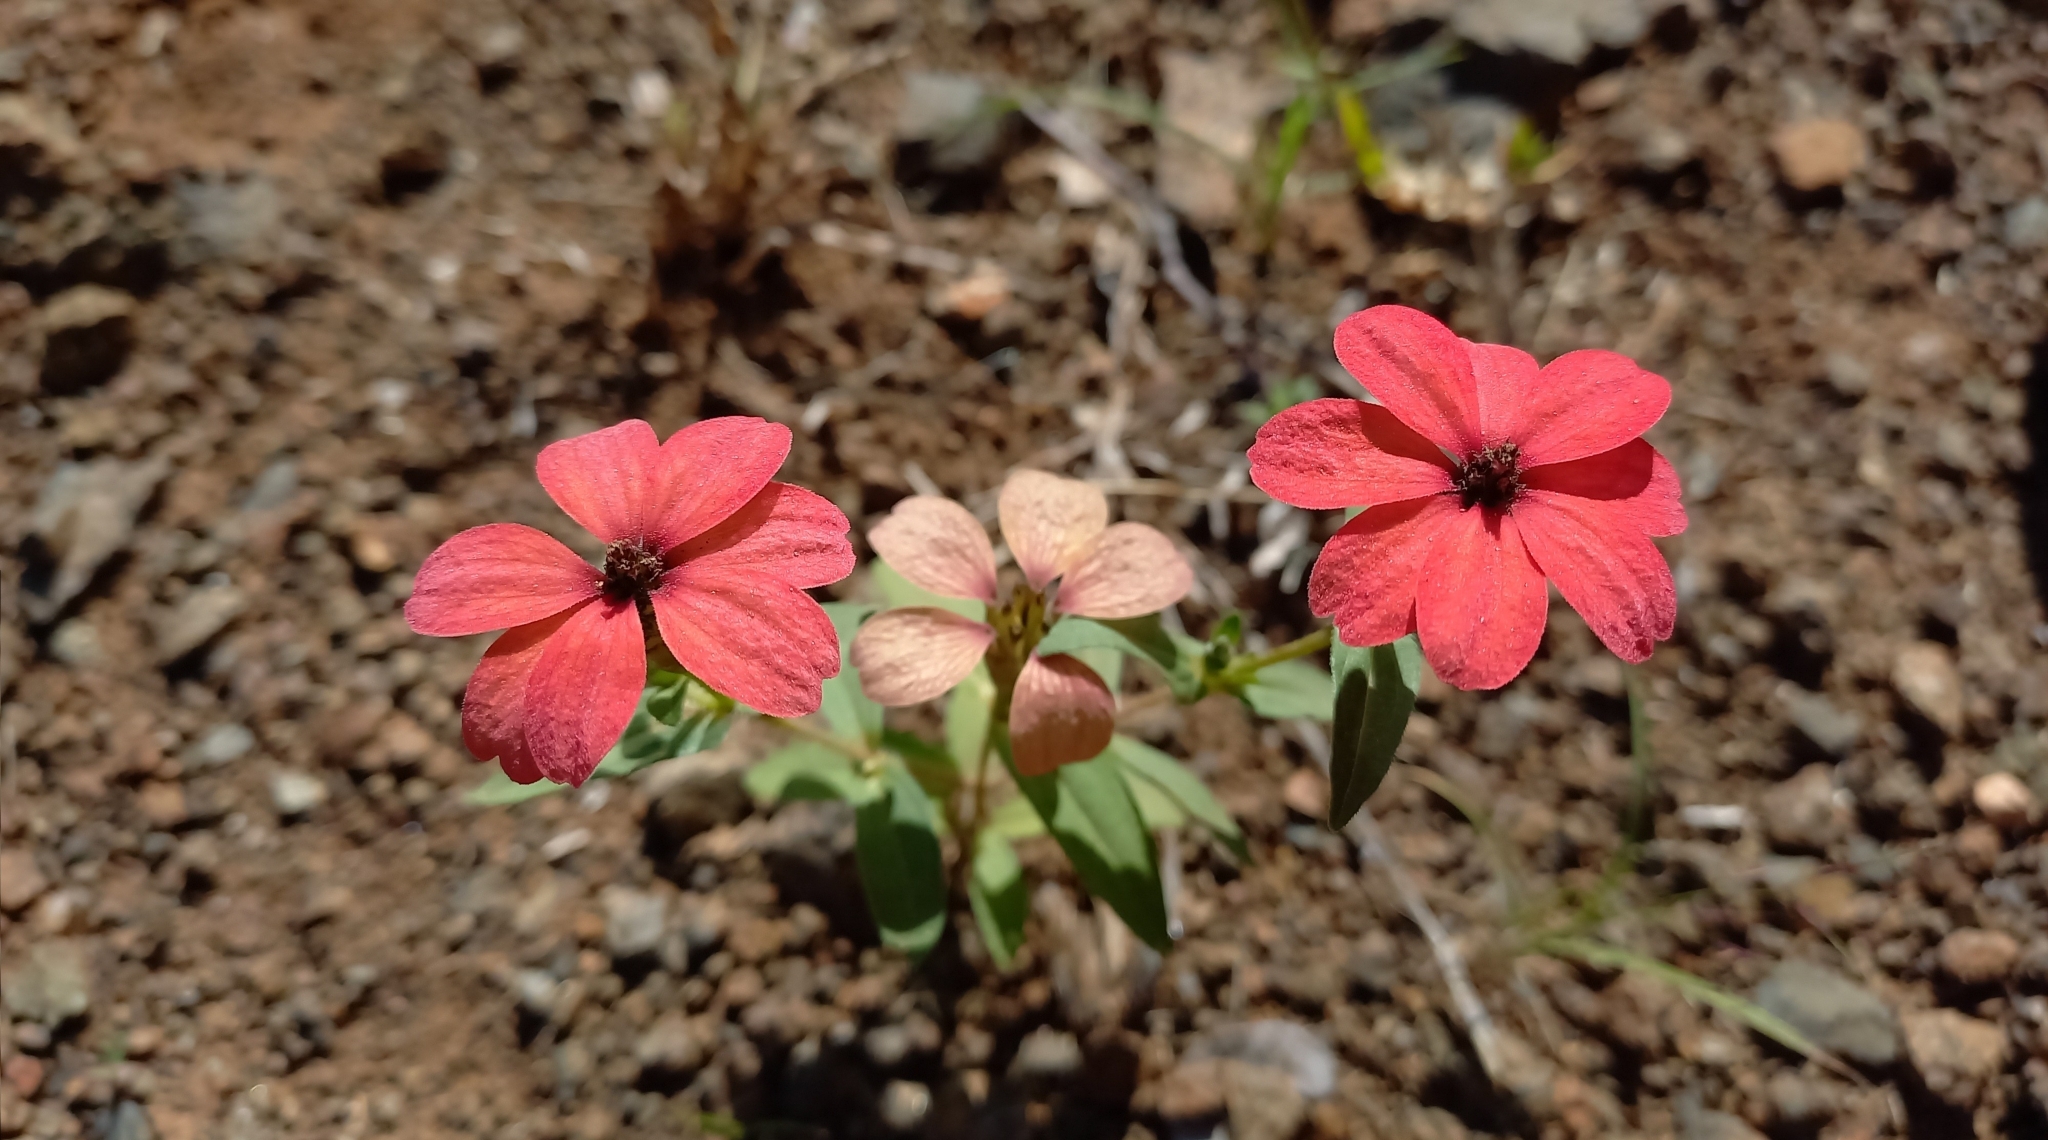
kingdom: Plantae
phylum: Tracheophyta
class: Magnoliopsida
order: Asterales
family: Asteraceae
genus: Zinnia
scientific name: Zinnia peruviana
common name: Peruvian zinnia
